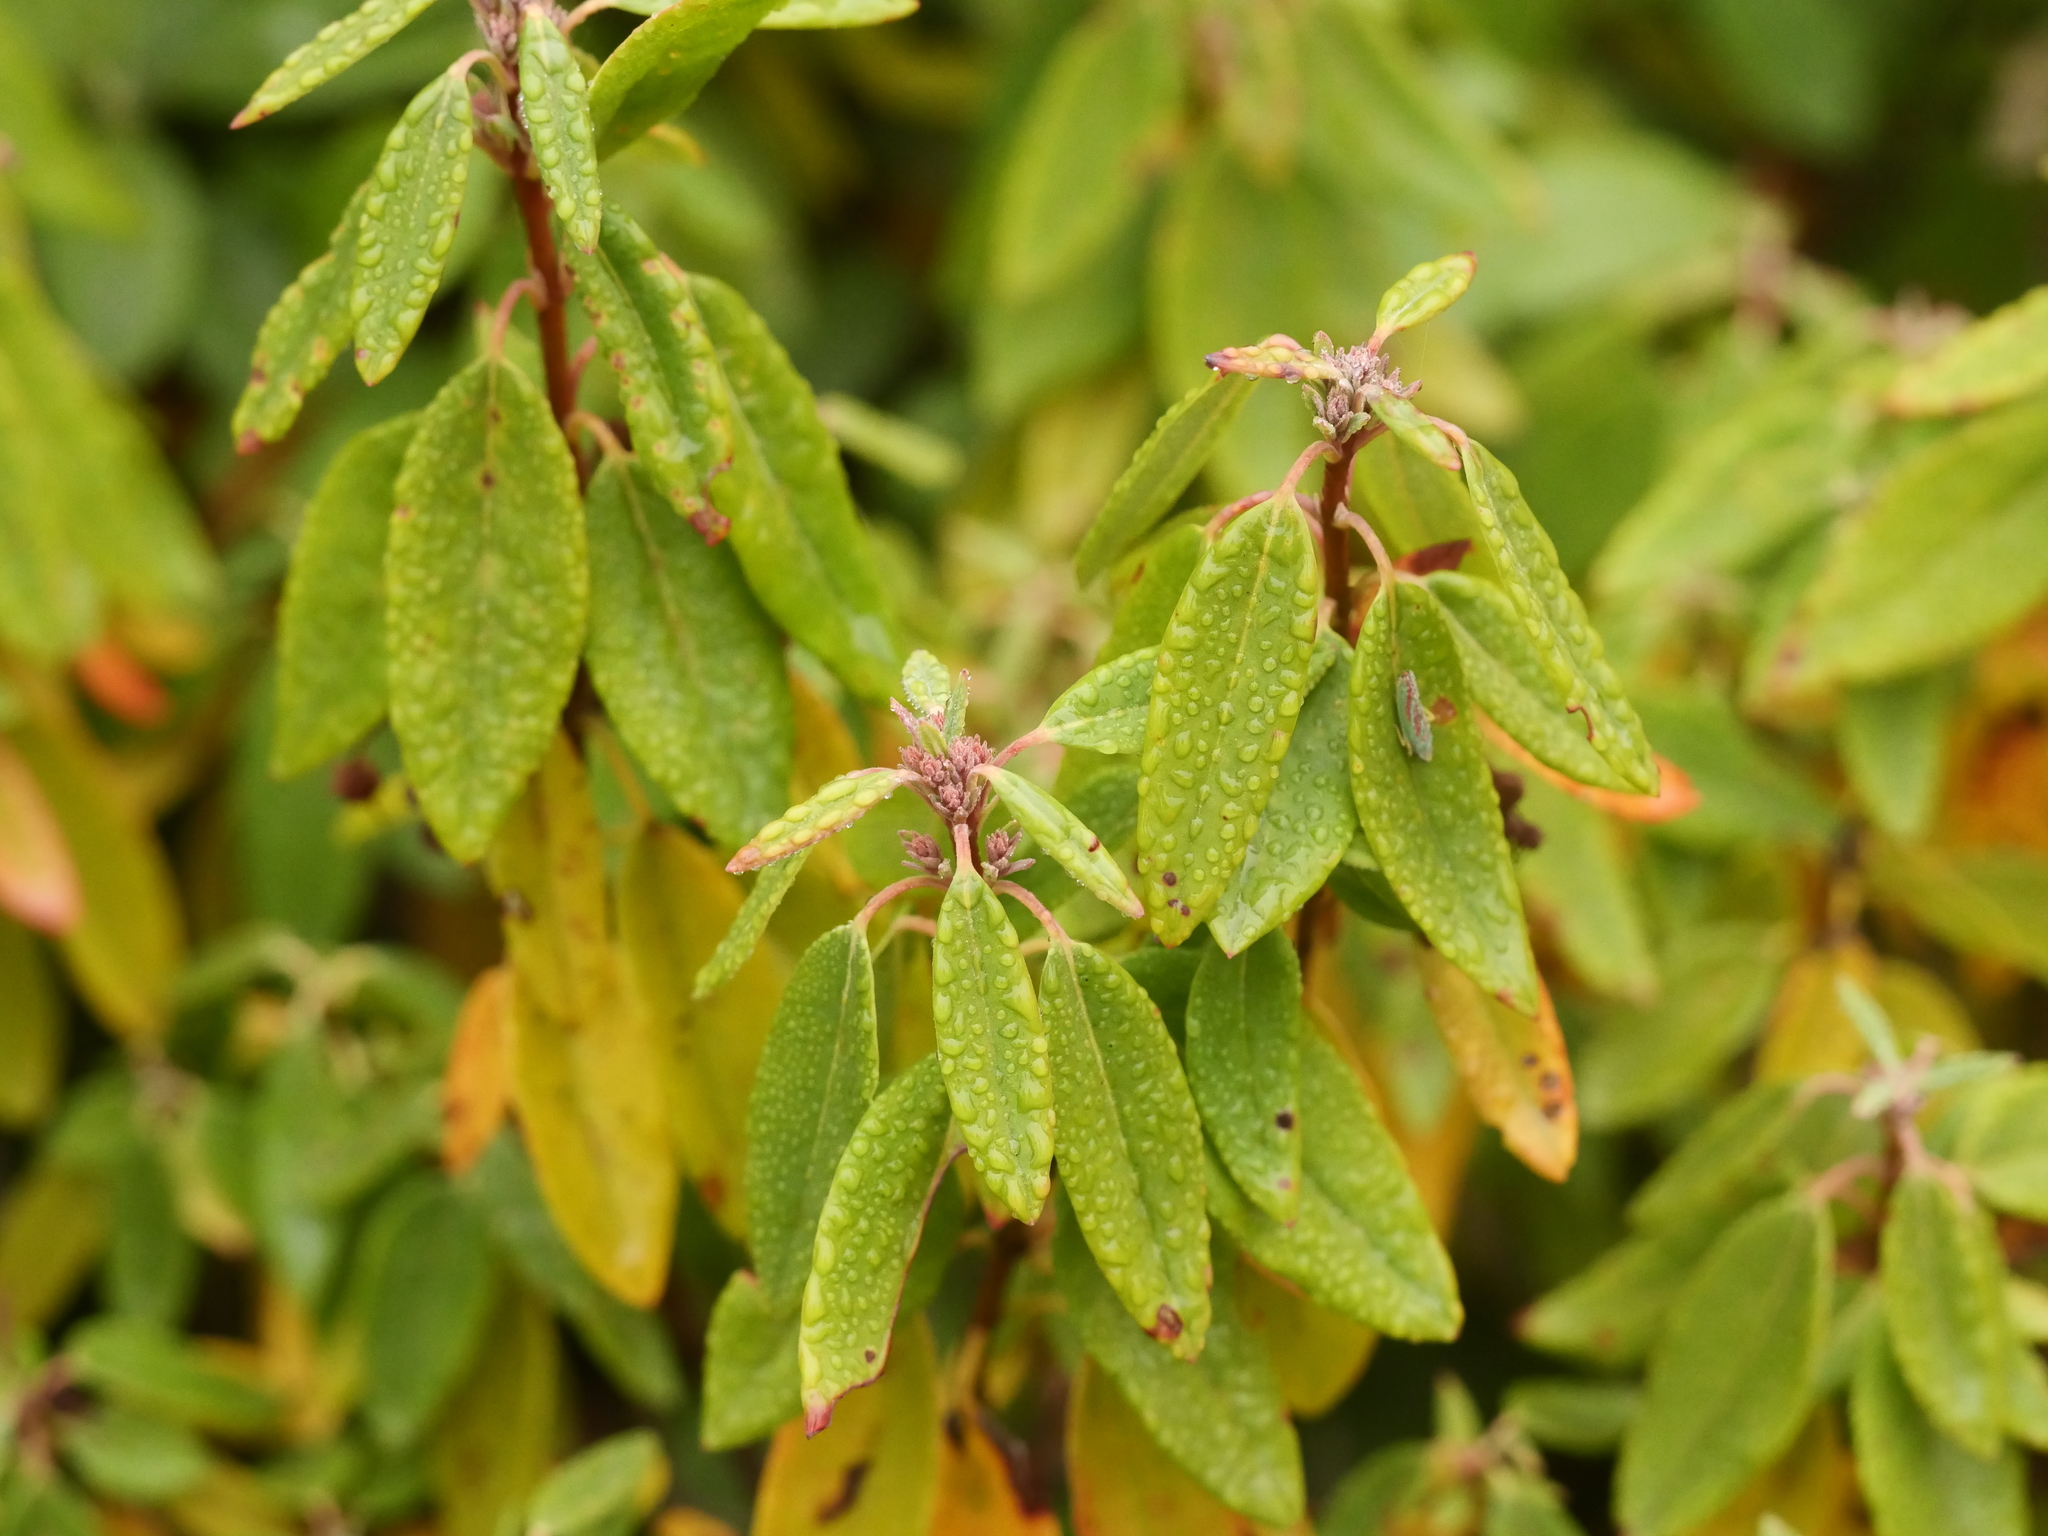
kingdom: Plantae
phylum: Tracheophyta
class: Magnoliopsida
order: Ericales
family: Ericaceae
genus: Kalmia
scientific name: Kalmia angustifolia
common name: Sheep-laurel
